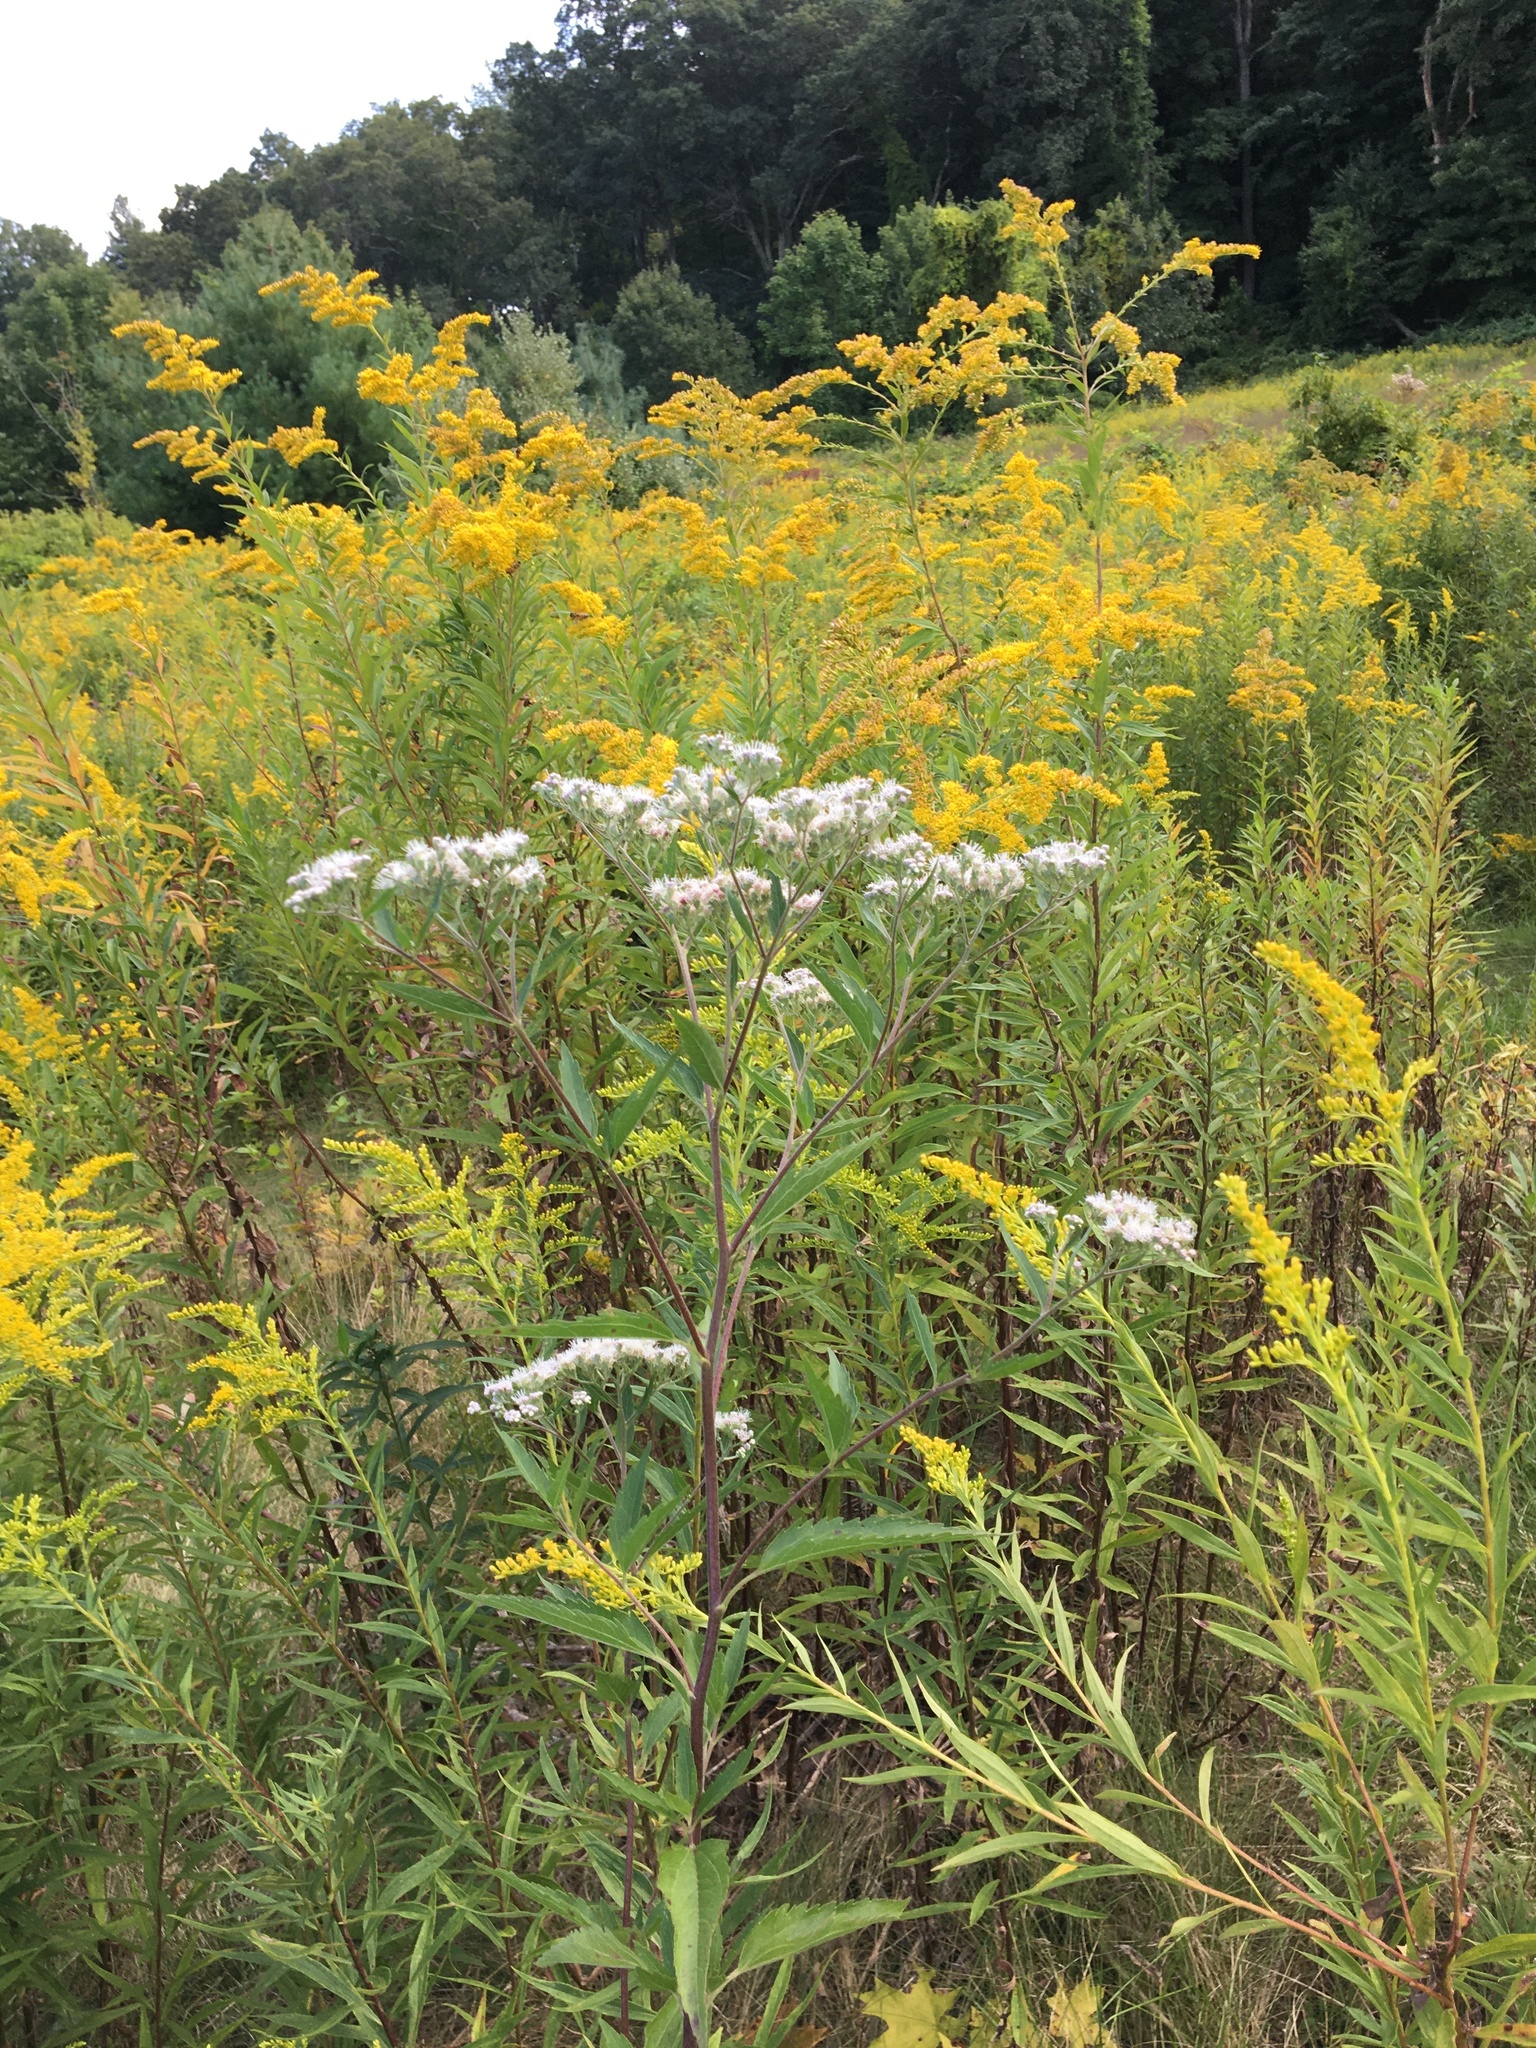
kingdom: Plantae
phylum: Tracheophyta
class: Magnoliopsida
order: Asterales
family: Asteraceae
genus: Eupatorium
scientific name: Eupatorium serotinum
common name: Late boneset
